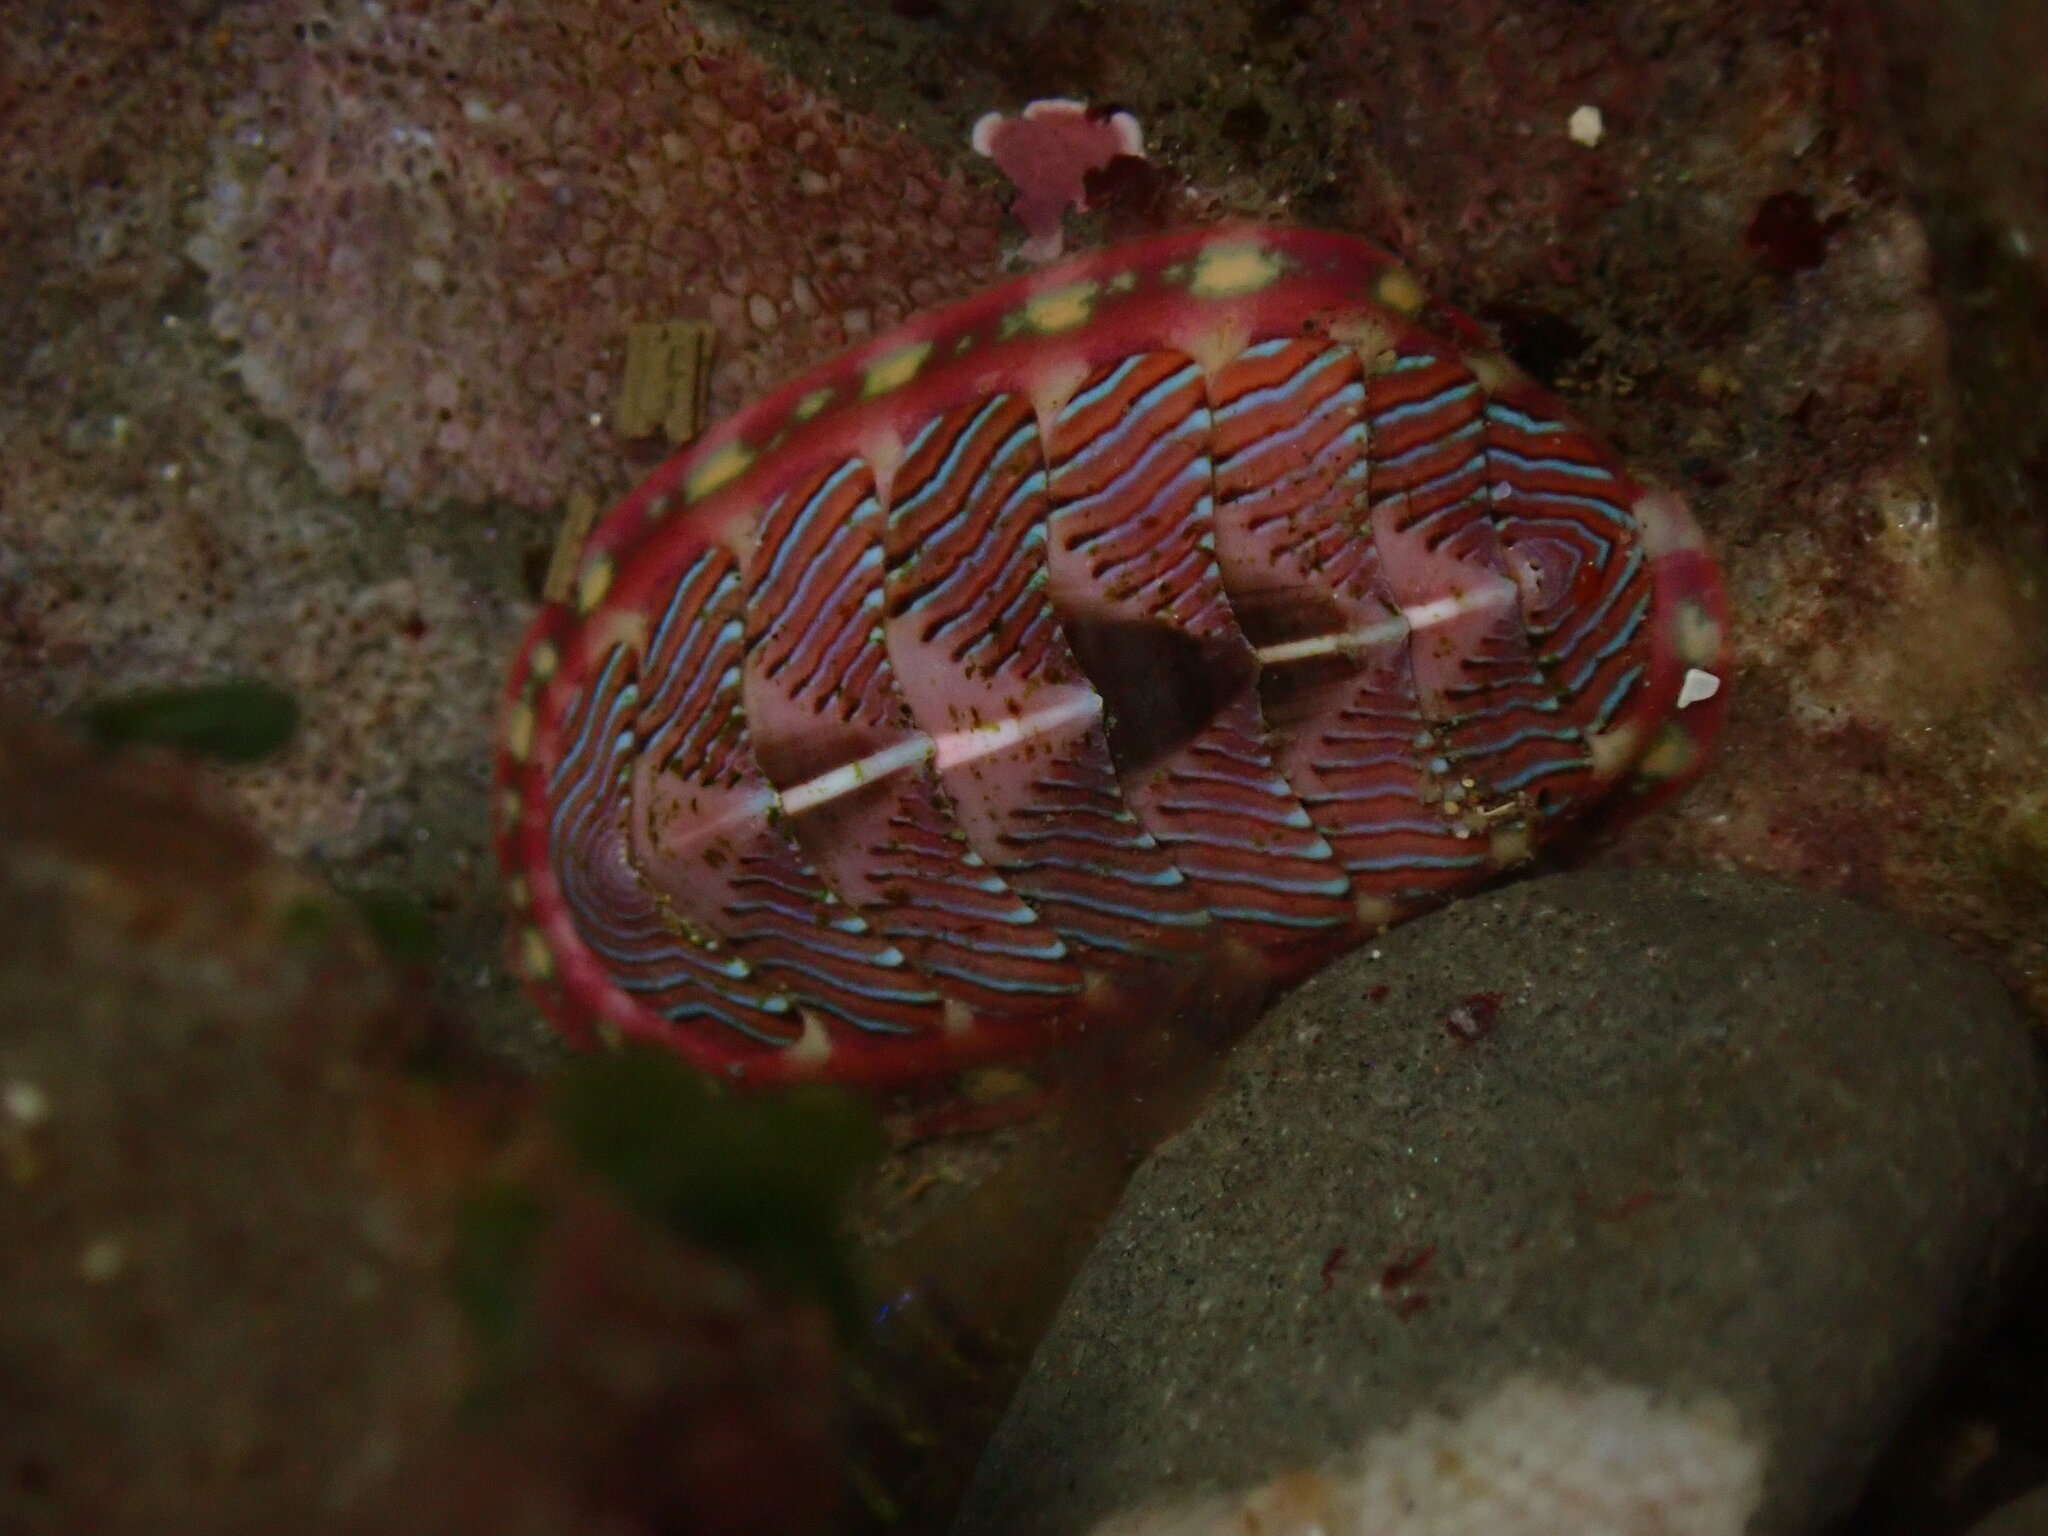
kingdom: Animalia
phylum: Mollusca
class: Polyplacophora
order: Chitonida
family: Tonicellidae
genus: Tonicella
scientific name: Tonicella lineata
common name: Lined chiton
